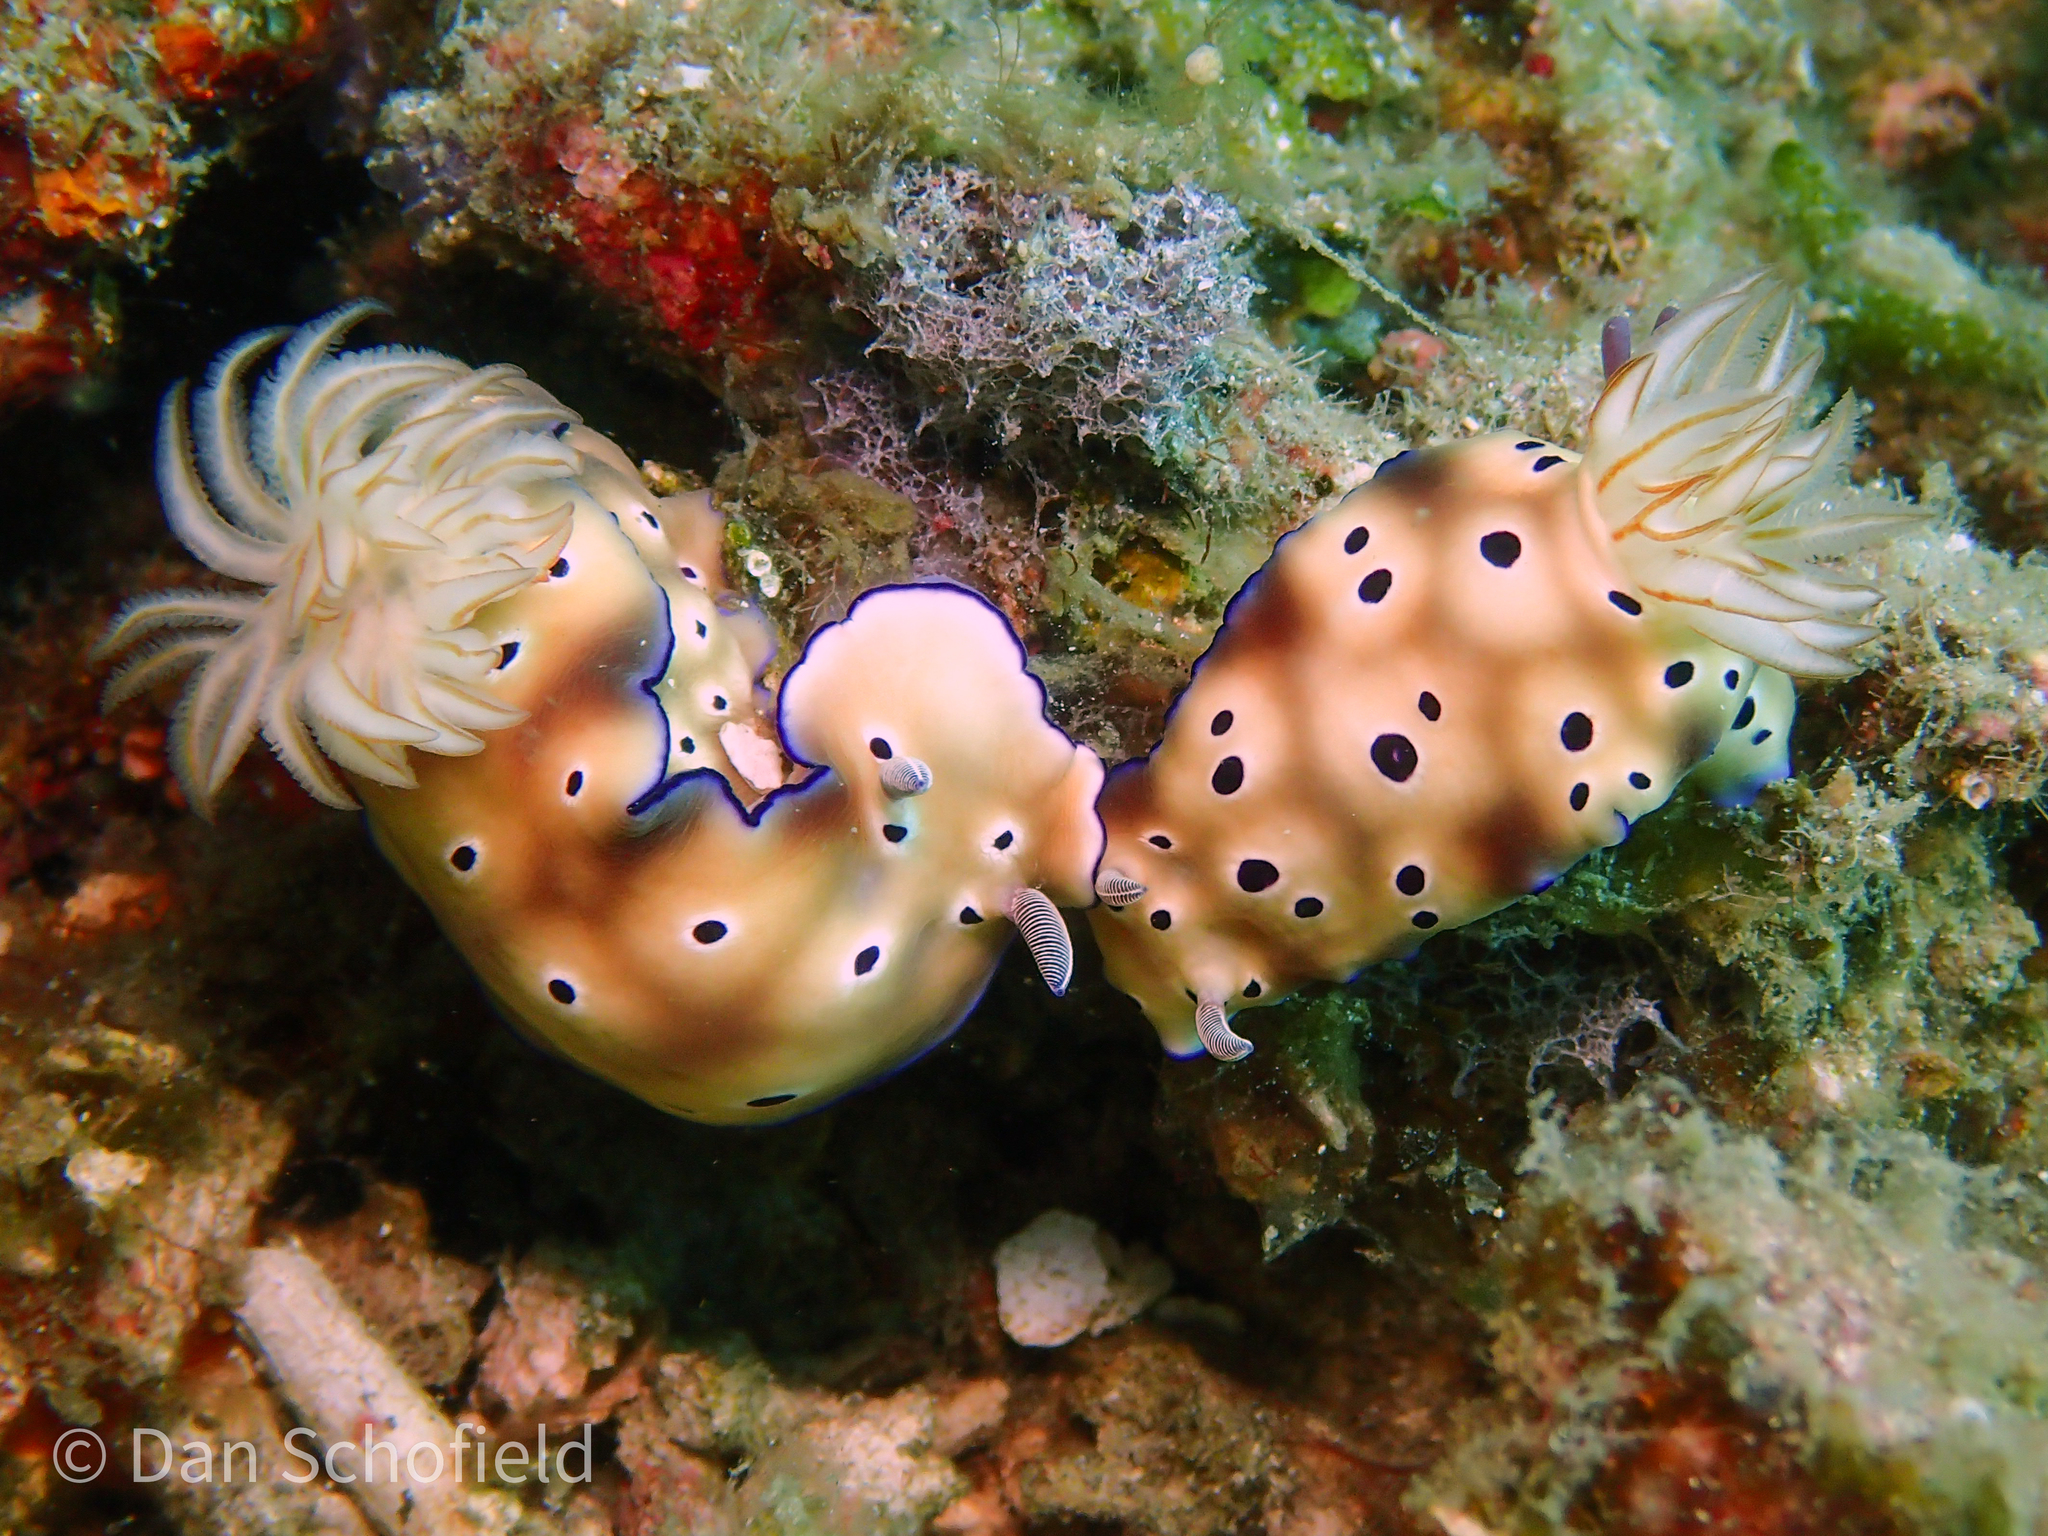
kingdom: Animalia
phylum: Mollusca
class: Gastropoda
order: Nudibranchia
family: Chromodorididae
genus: Hypselodoris
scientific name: Hypselodoris tryoni
